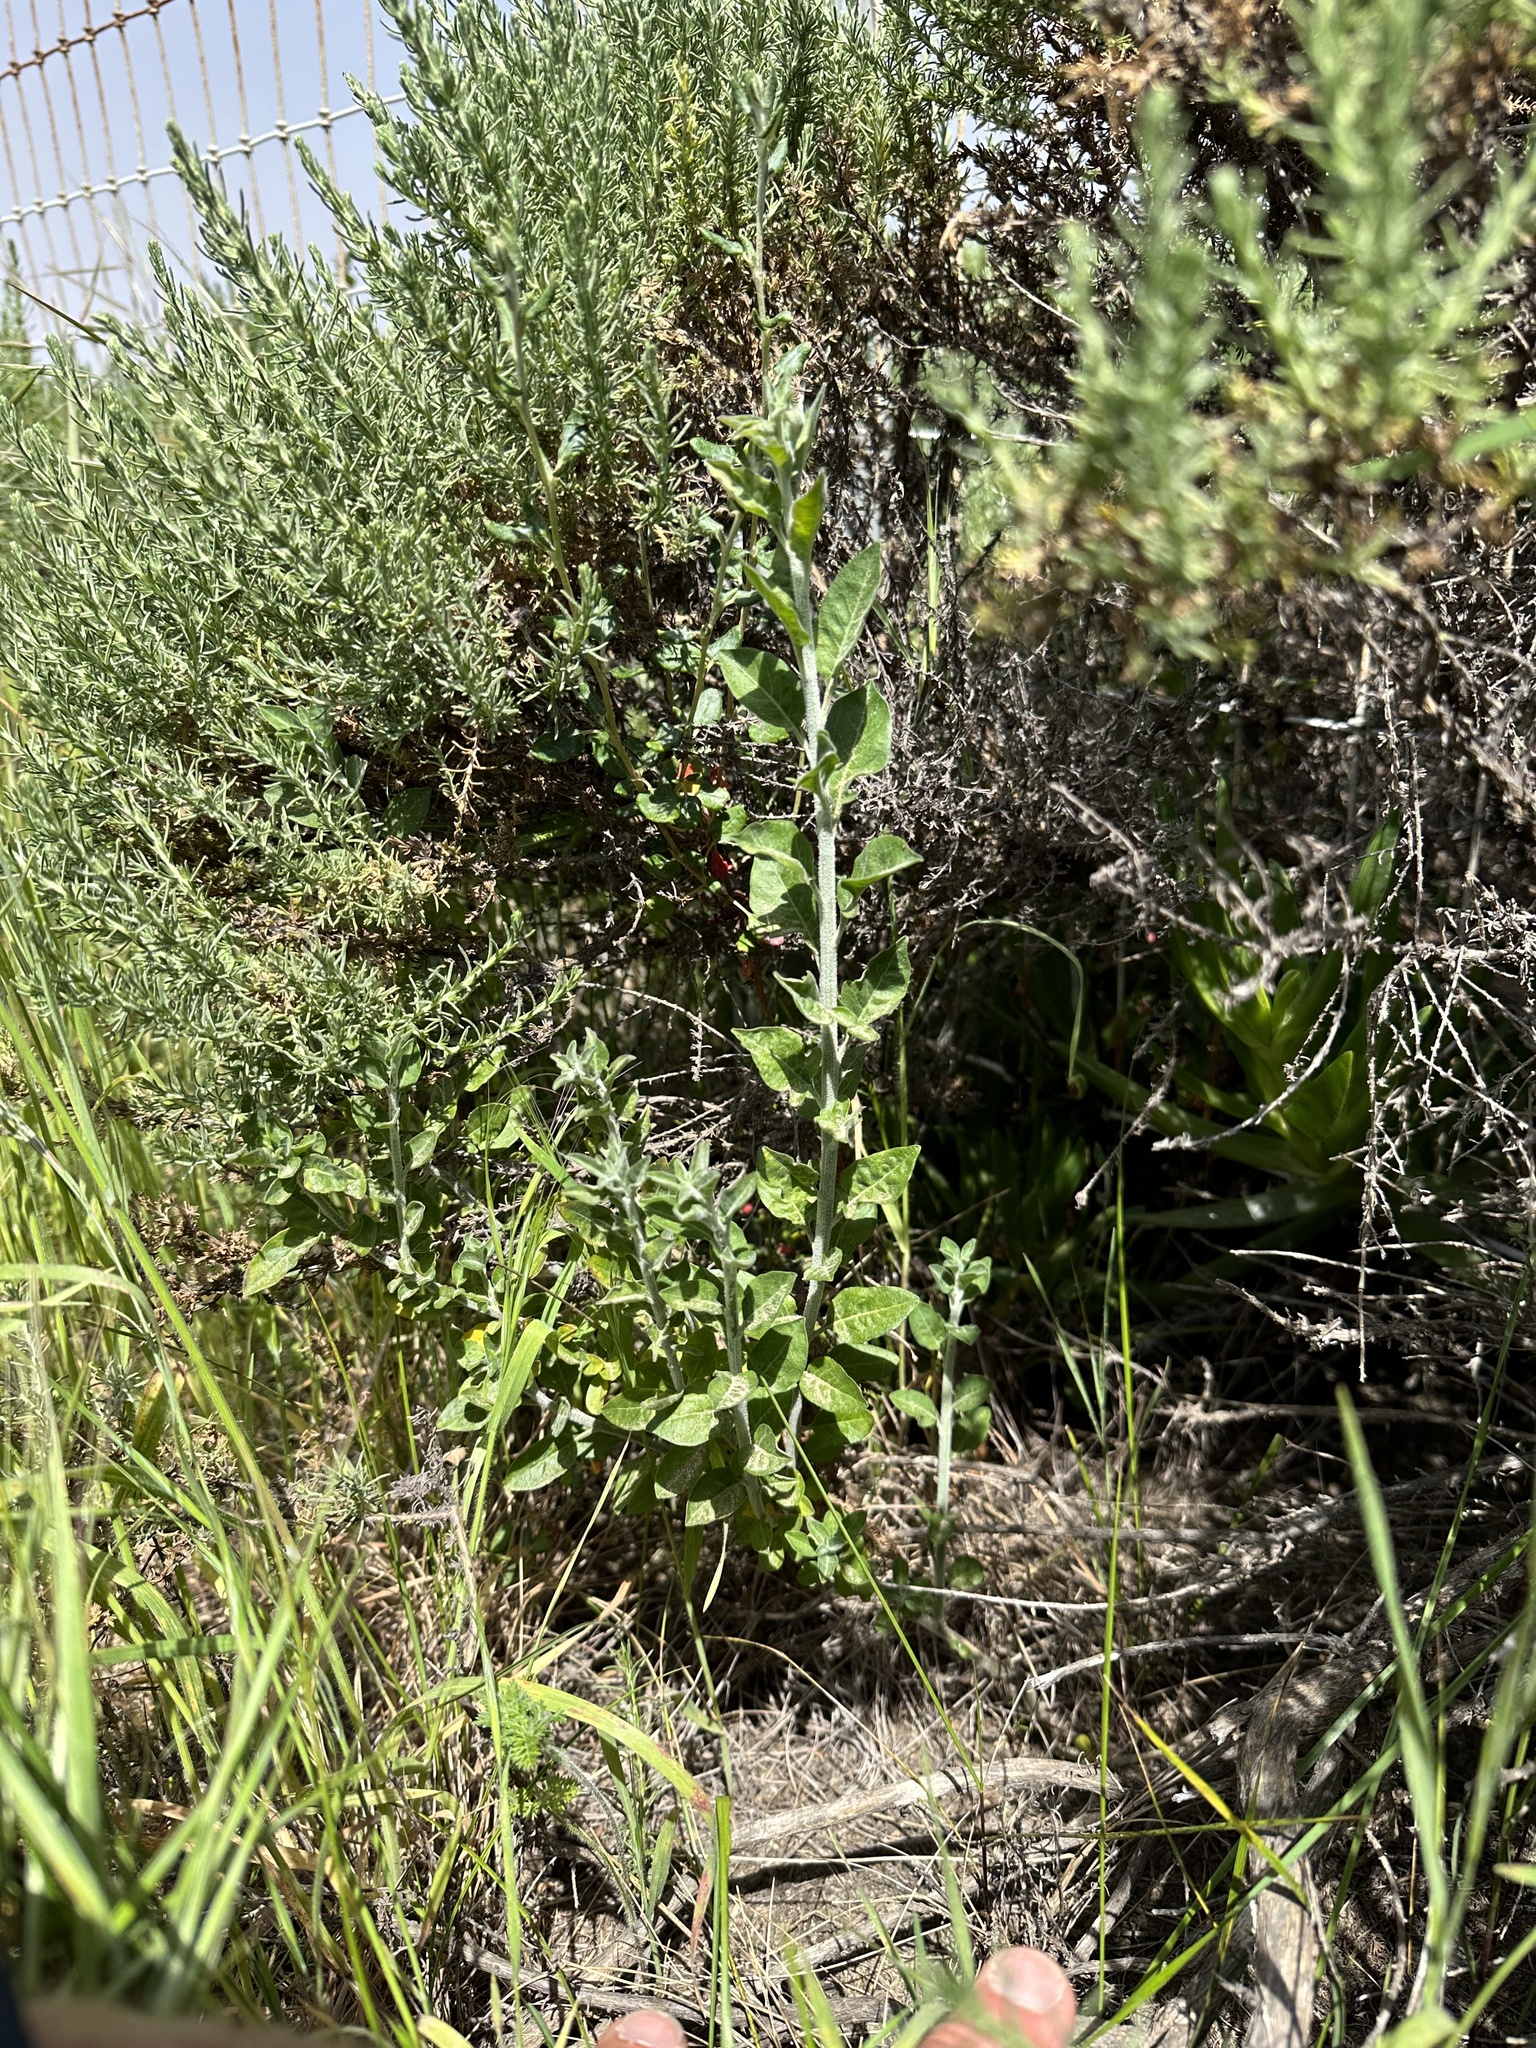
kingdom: Plantae
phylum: Tracheophyta
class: Magnoliopsida
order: Solanales
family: Solanaceae
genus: Solanum
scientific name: Solanum umbelliferum
